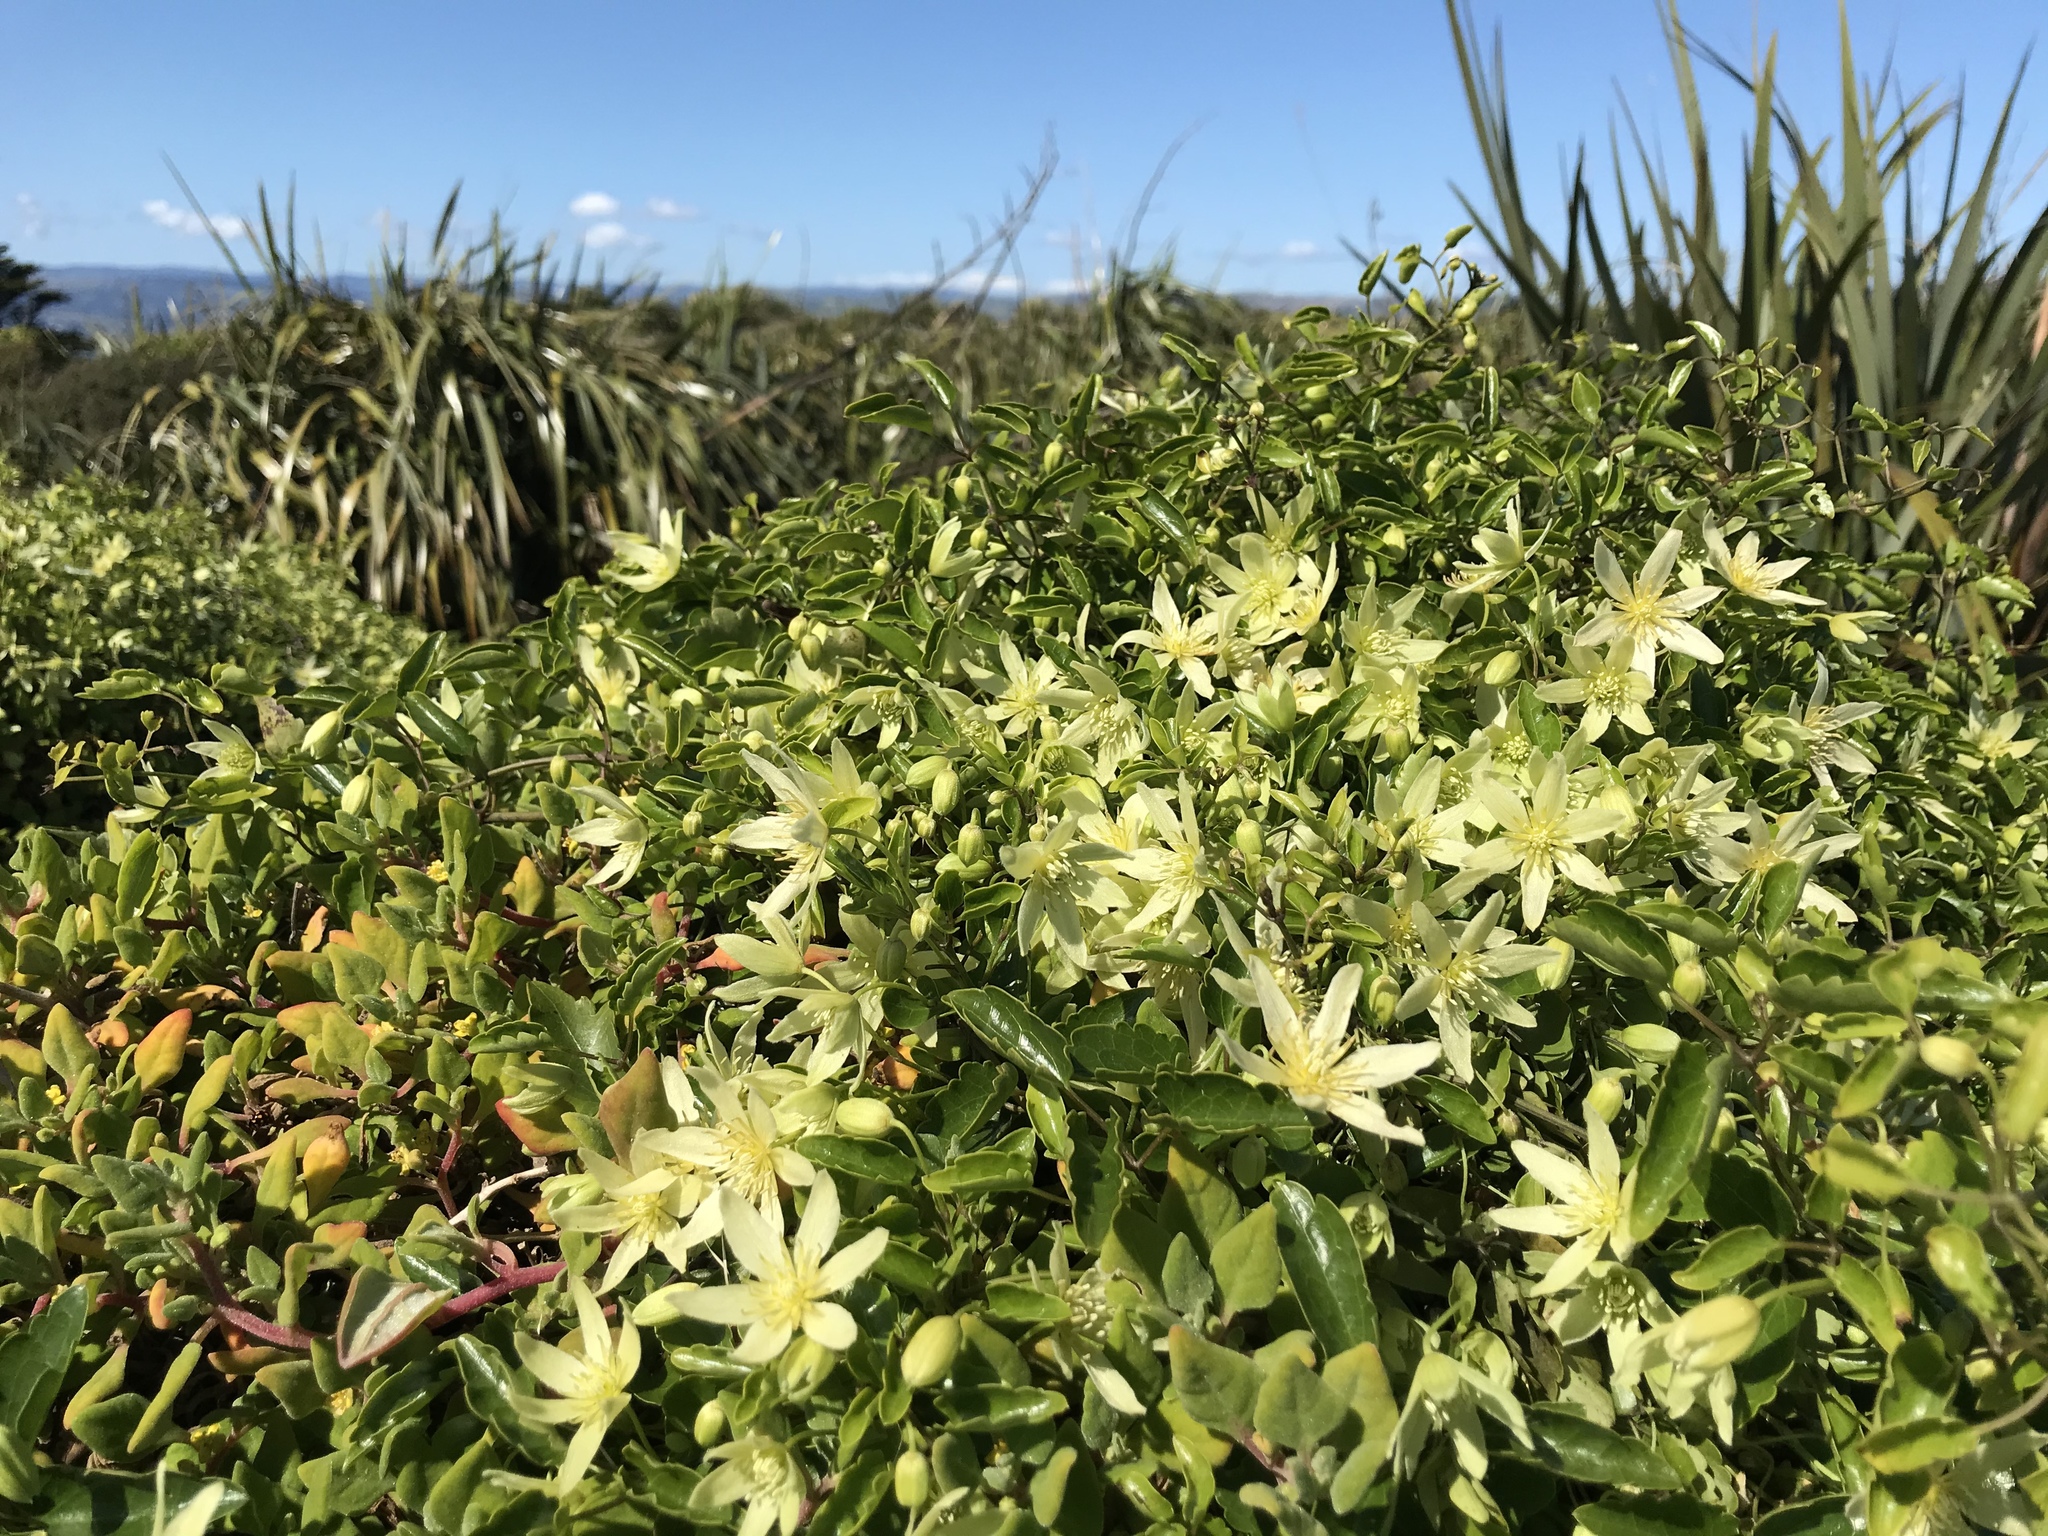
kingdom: Plantae
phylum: Tracheophyta
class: Magnoliopsida
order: Ranunculales
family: Ranunculaceae
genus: Clematis
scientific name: Clematis forsteri
